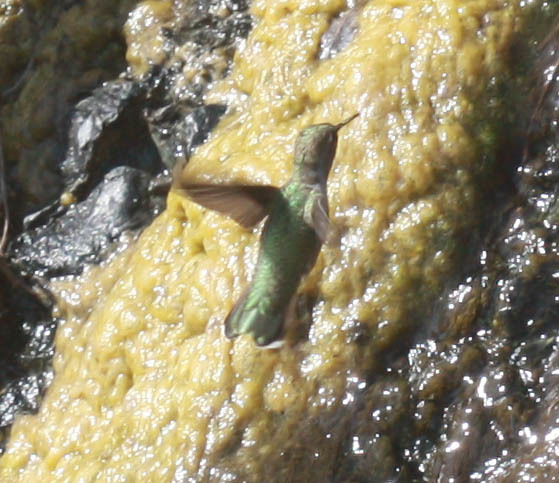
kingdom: Animalia
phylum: Chordata
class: Aves
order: Apodiformes
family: Trochilidae
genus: Calypte
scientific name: Calypte anna
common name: Anna's hummingbird
